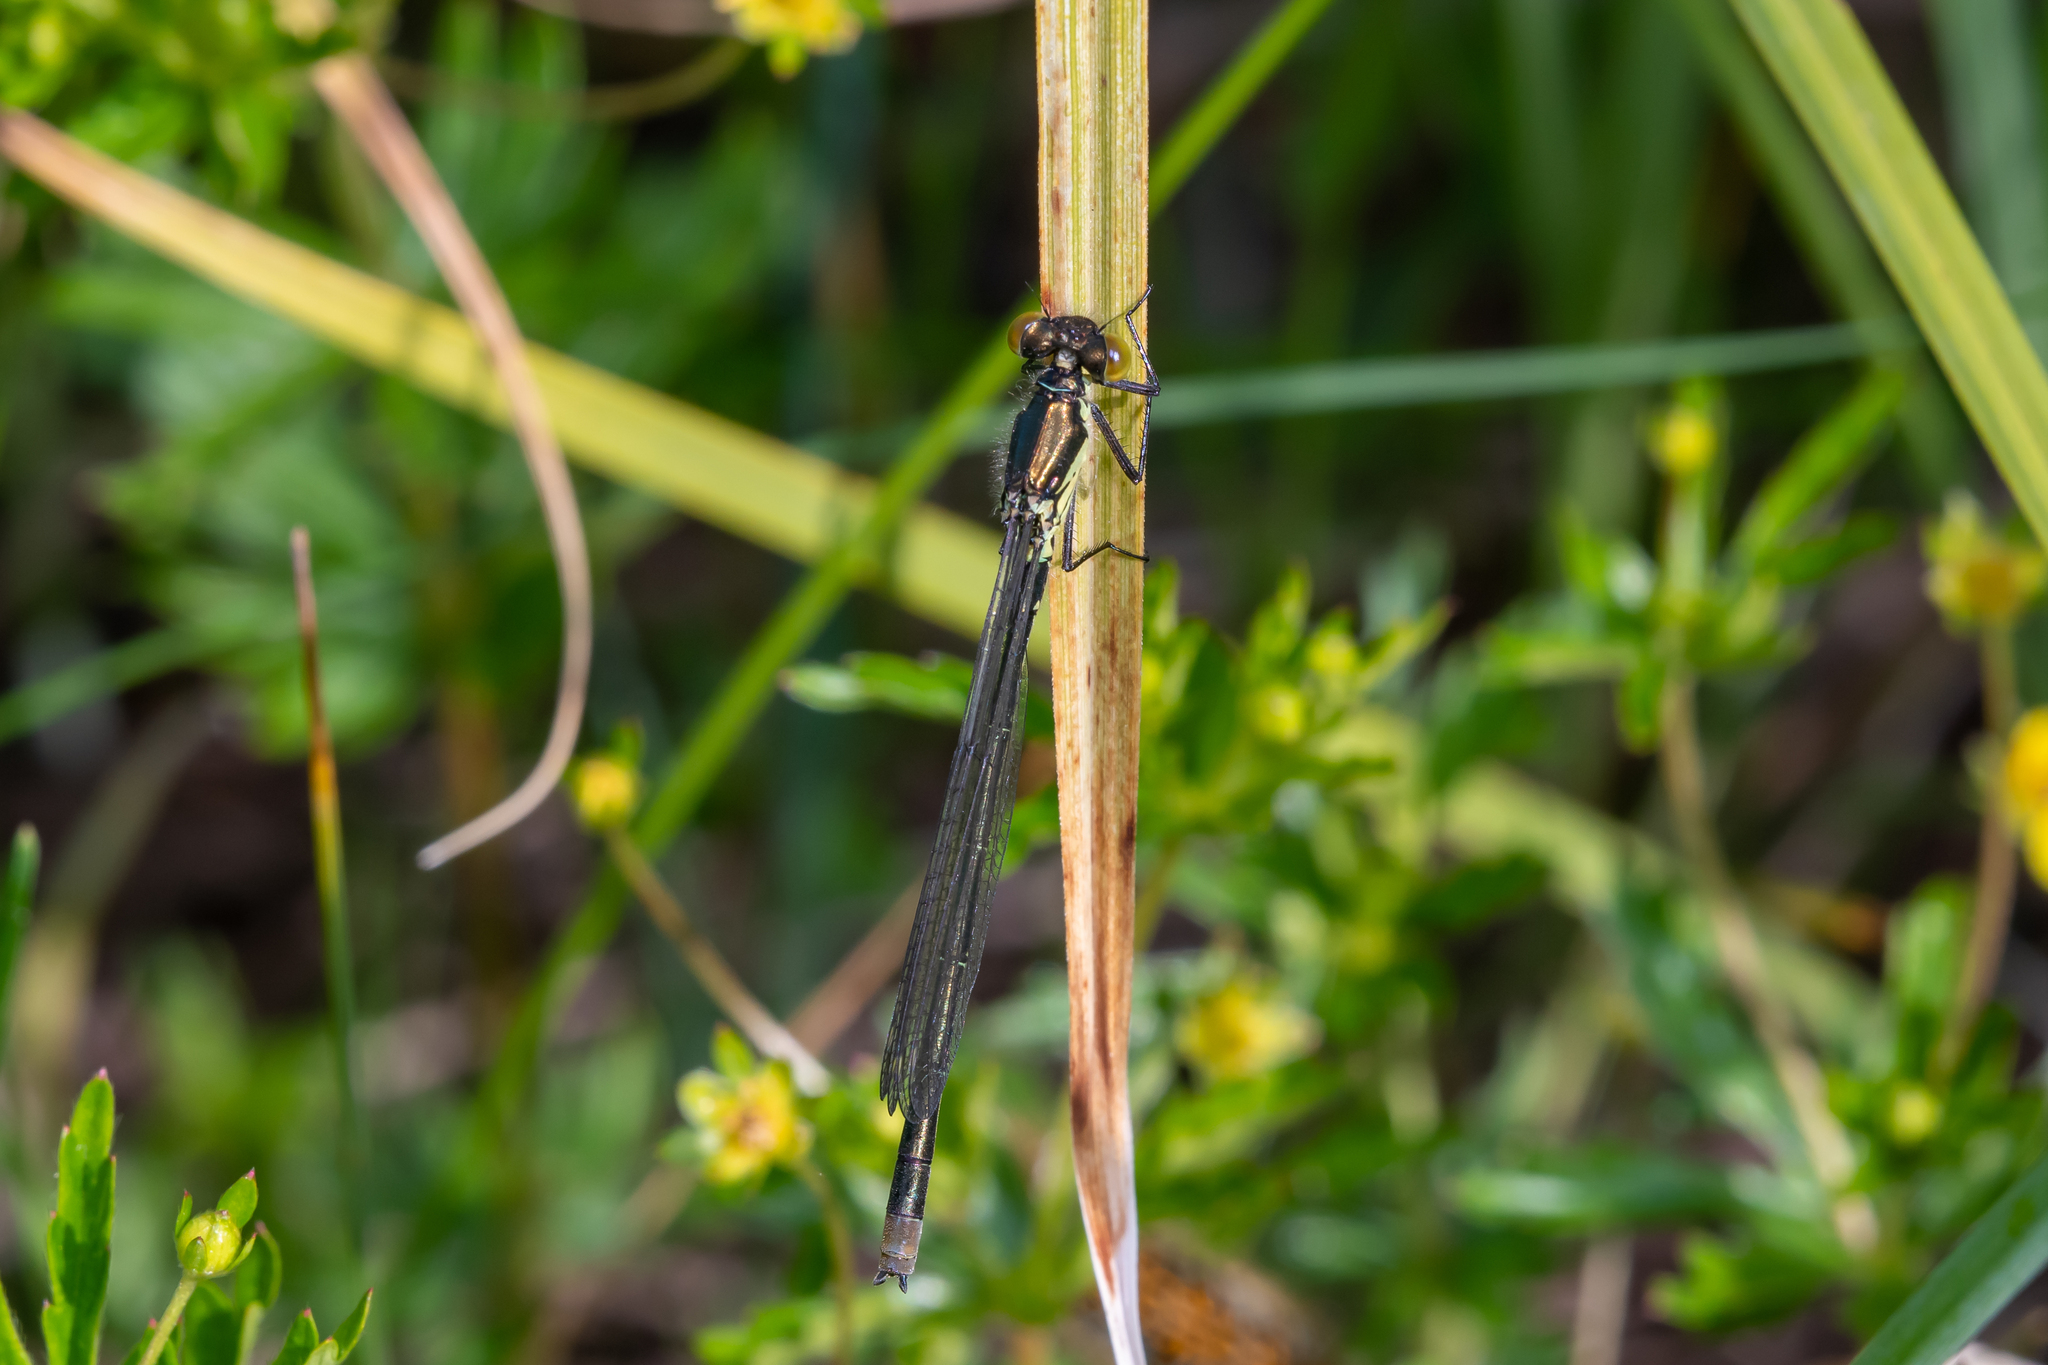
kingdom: Animalia
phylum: Arthropoda
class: Insecta
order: Odonata
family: Coenagrionidae
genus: Erythromma
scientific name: Erythromma najas
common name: Red-eyed damselfly
